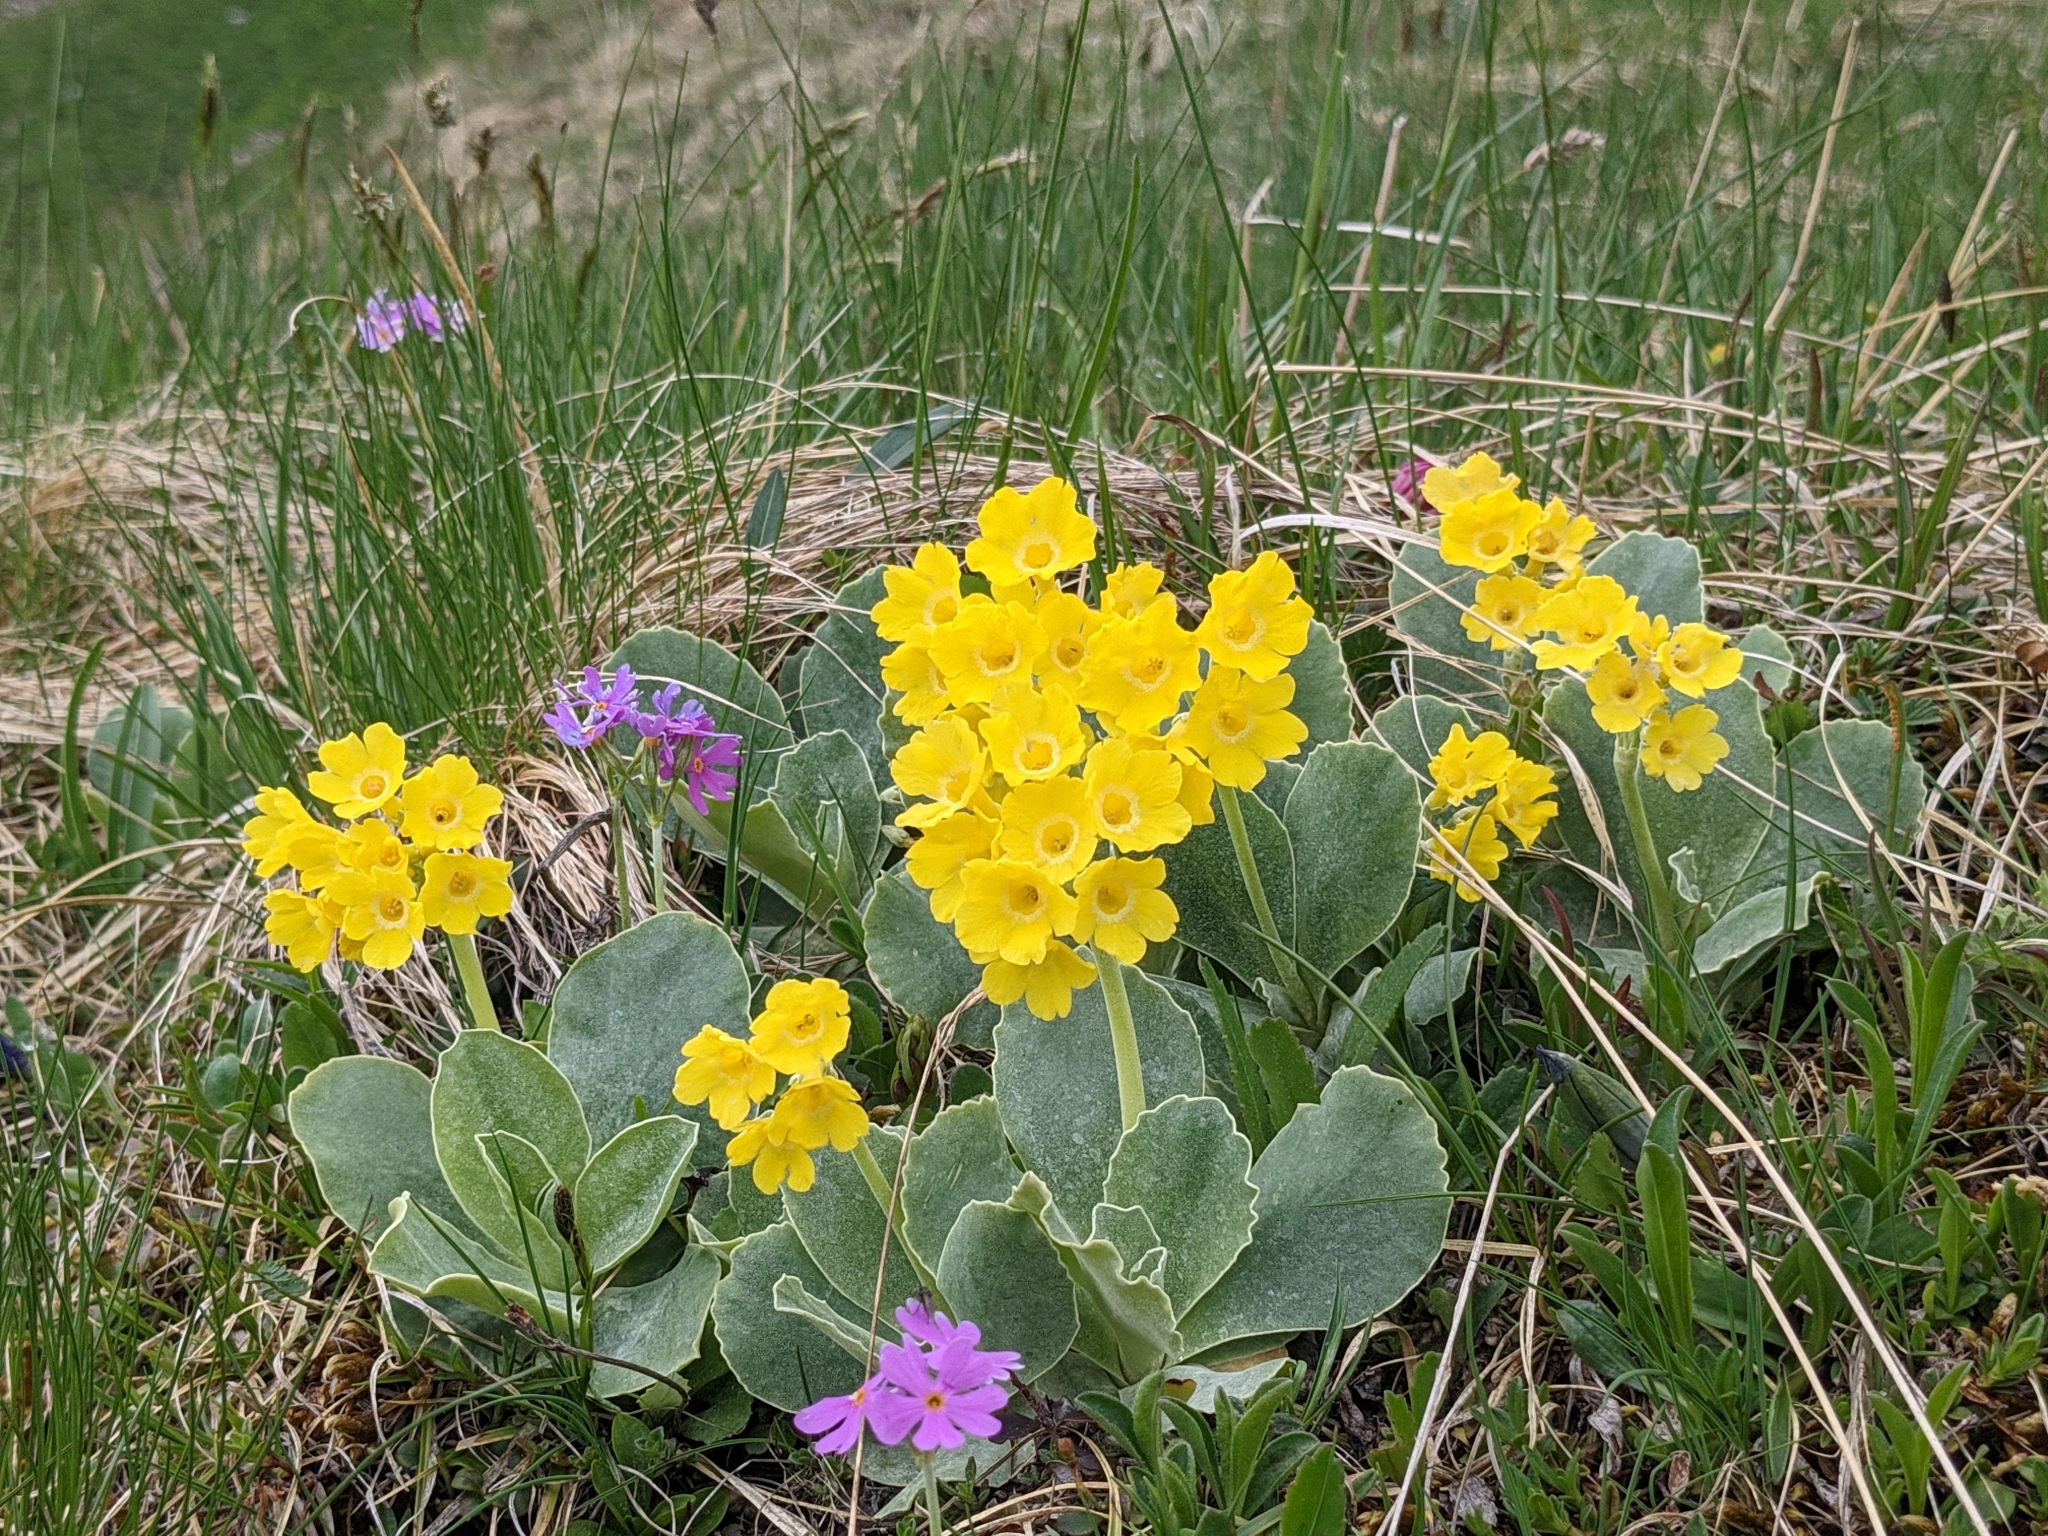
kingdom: Plantae
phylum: Tracheophyta
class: Magnoliopsida
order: Ericales
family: Primulaceae
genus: Primula
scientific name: Primula auricula
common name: Auricula
